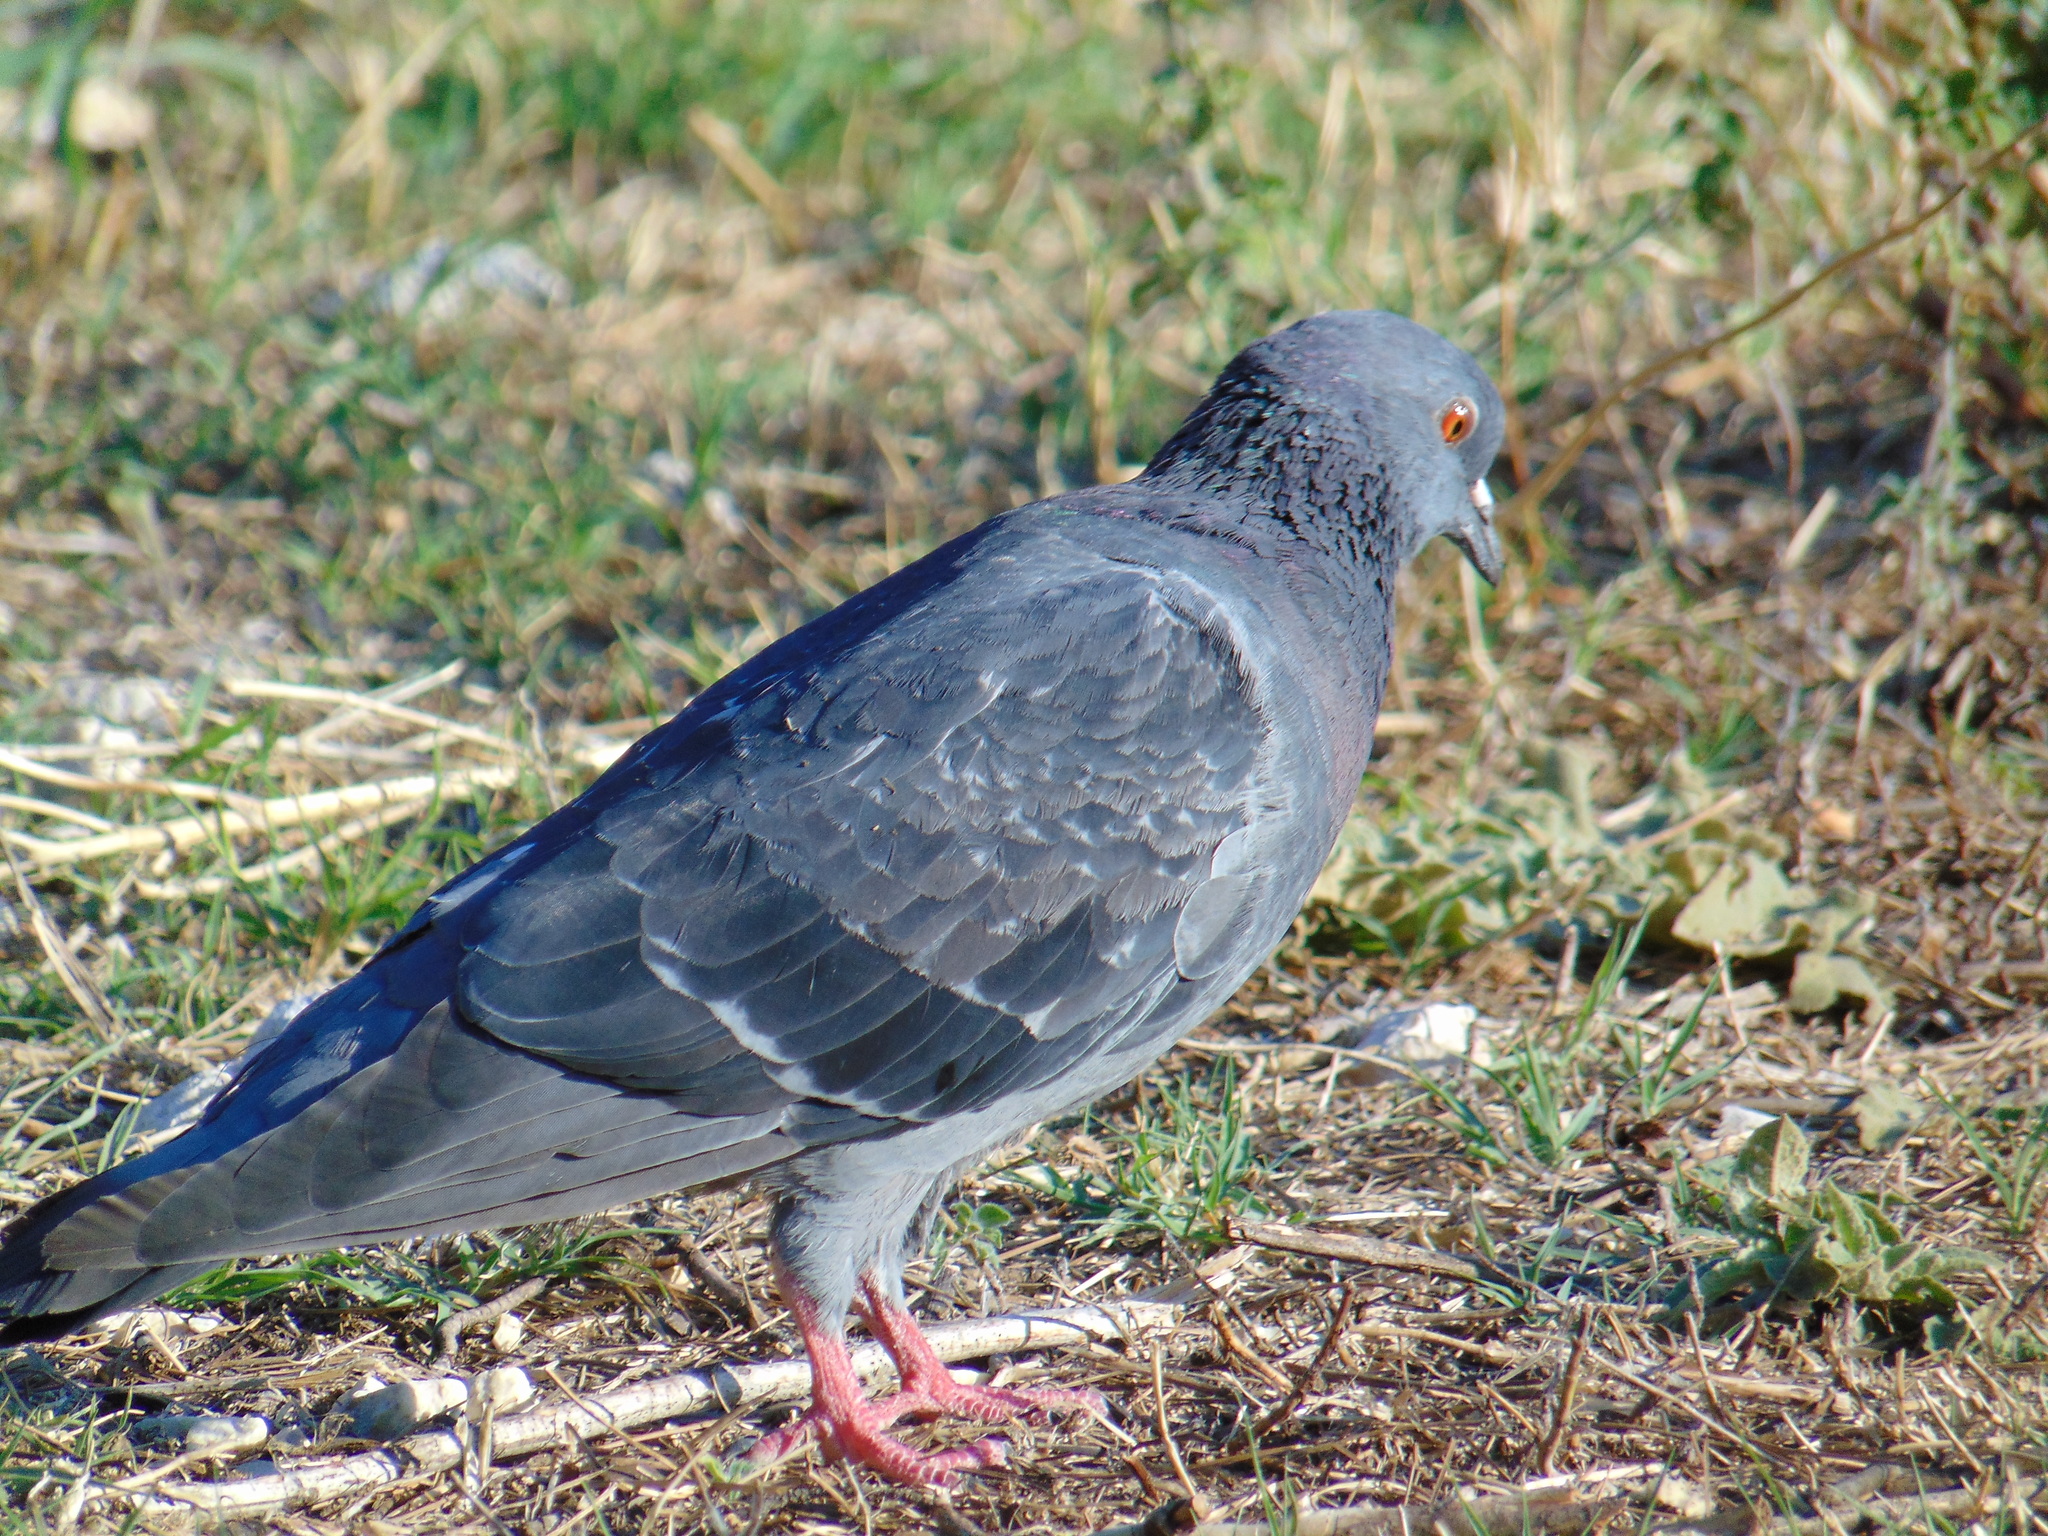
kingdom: Animalia
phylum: Chordata
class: Aves
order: Columbiformes
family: Columbidae
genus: Columba
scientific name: Columba livia
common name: Rock pigeon
